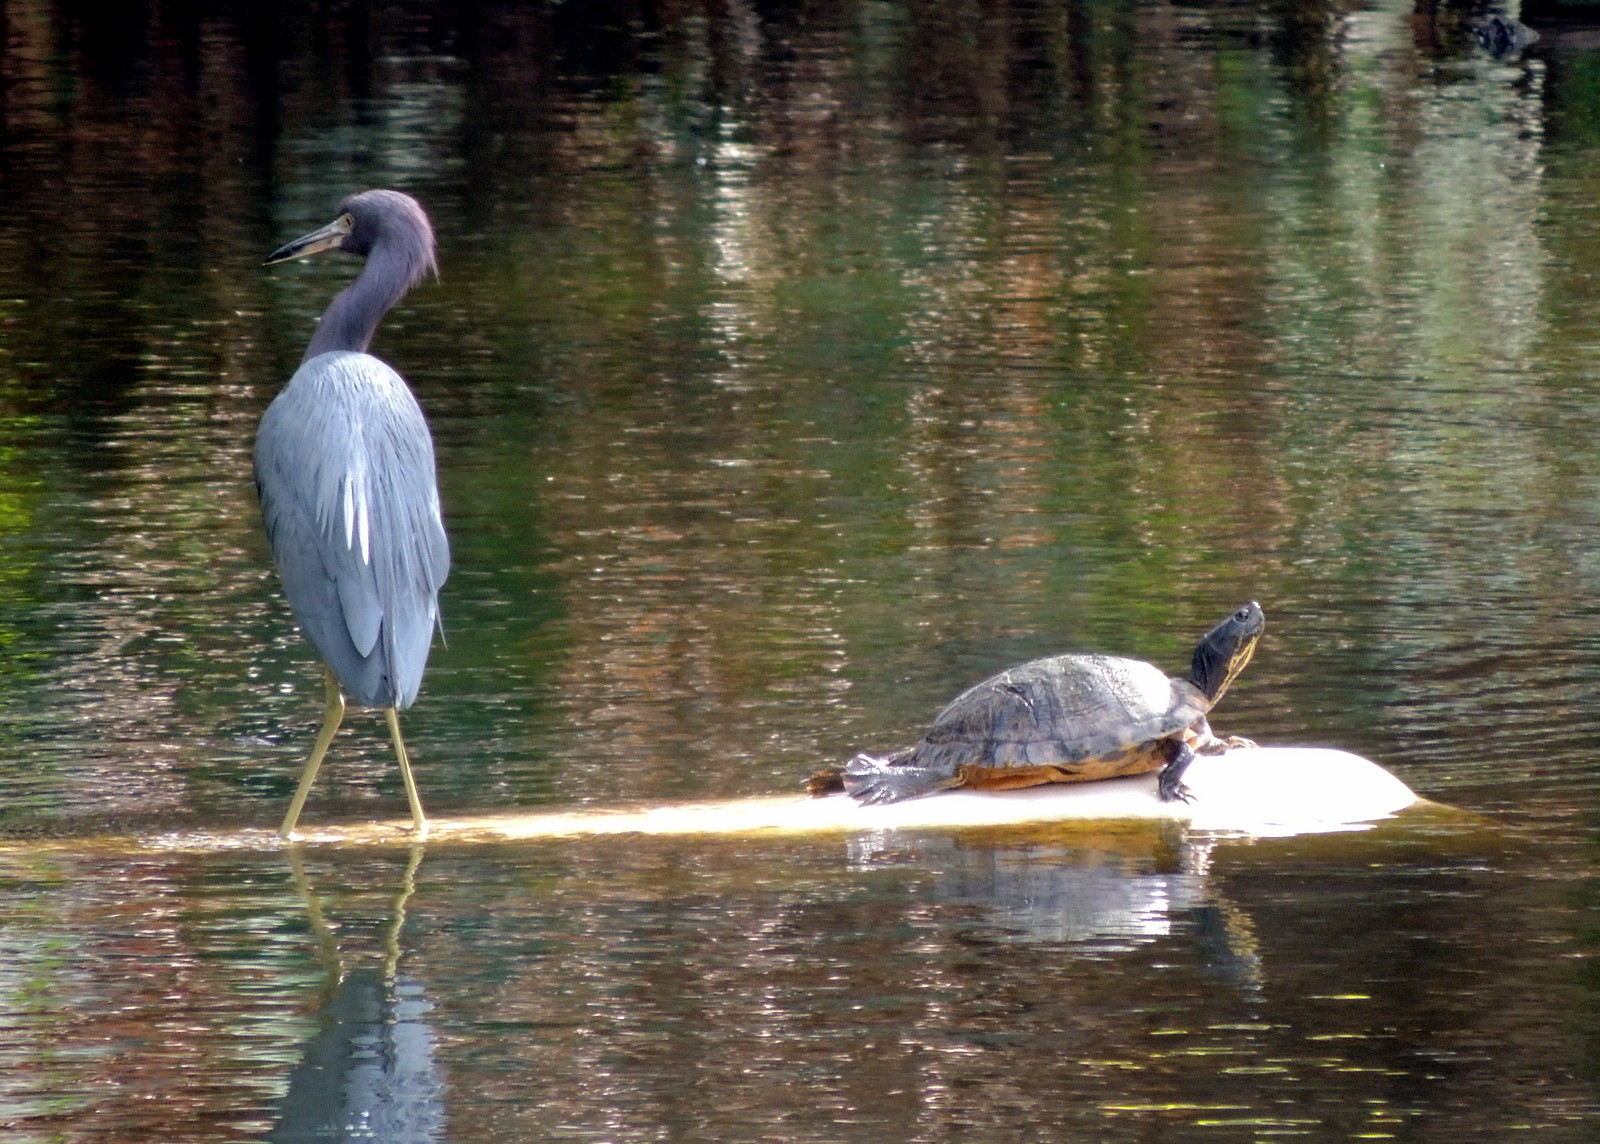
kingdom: Animalia
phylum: Chordata
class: Aves
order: Pelecaniformes
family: Ardeidae
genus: Egretta
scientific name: Egretta caerulea
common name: Little blue heron
